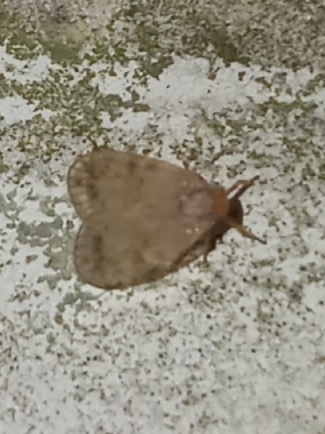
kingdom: Animalia
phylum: Arthropoda
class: Insecta
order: Hemiptera
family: Cixiidae
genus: Bothriocera
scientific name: Bothriocera drakei
